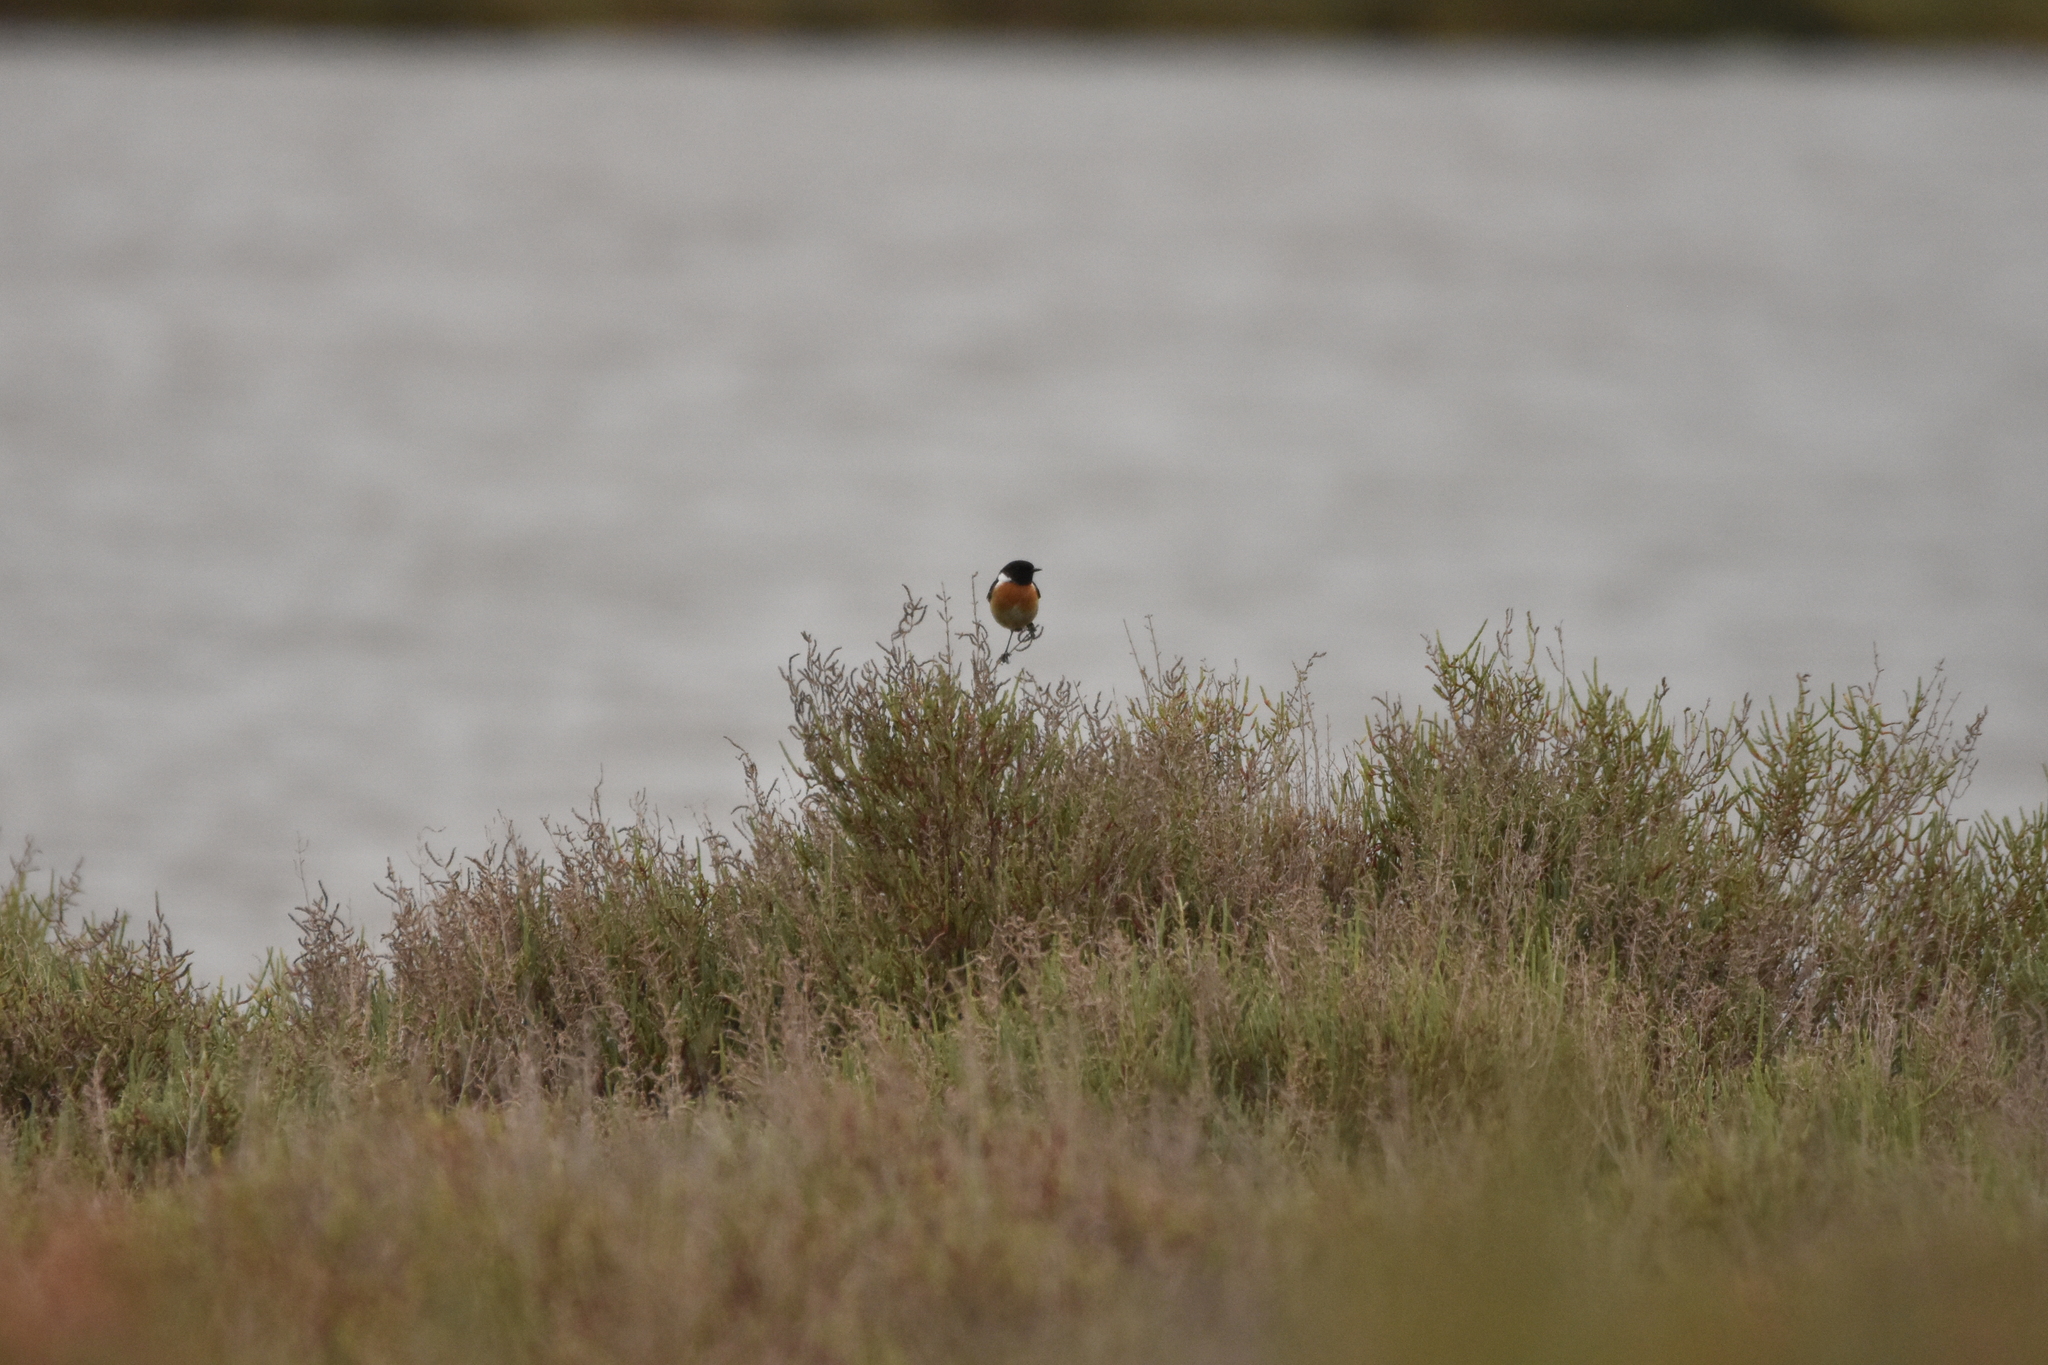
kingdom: Animalia
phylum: Chordata
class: Aves
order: Passeriformes
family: Muscicapidae
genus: Saxicola
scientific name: Saxicola rubicola
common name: European stonechat
